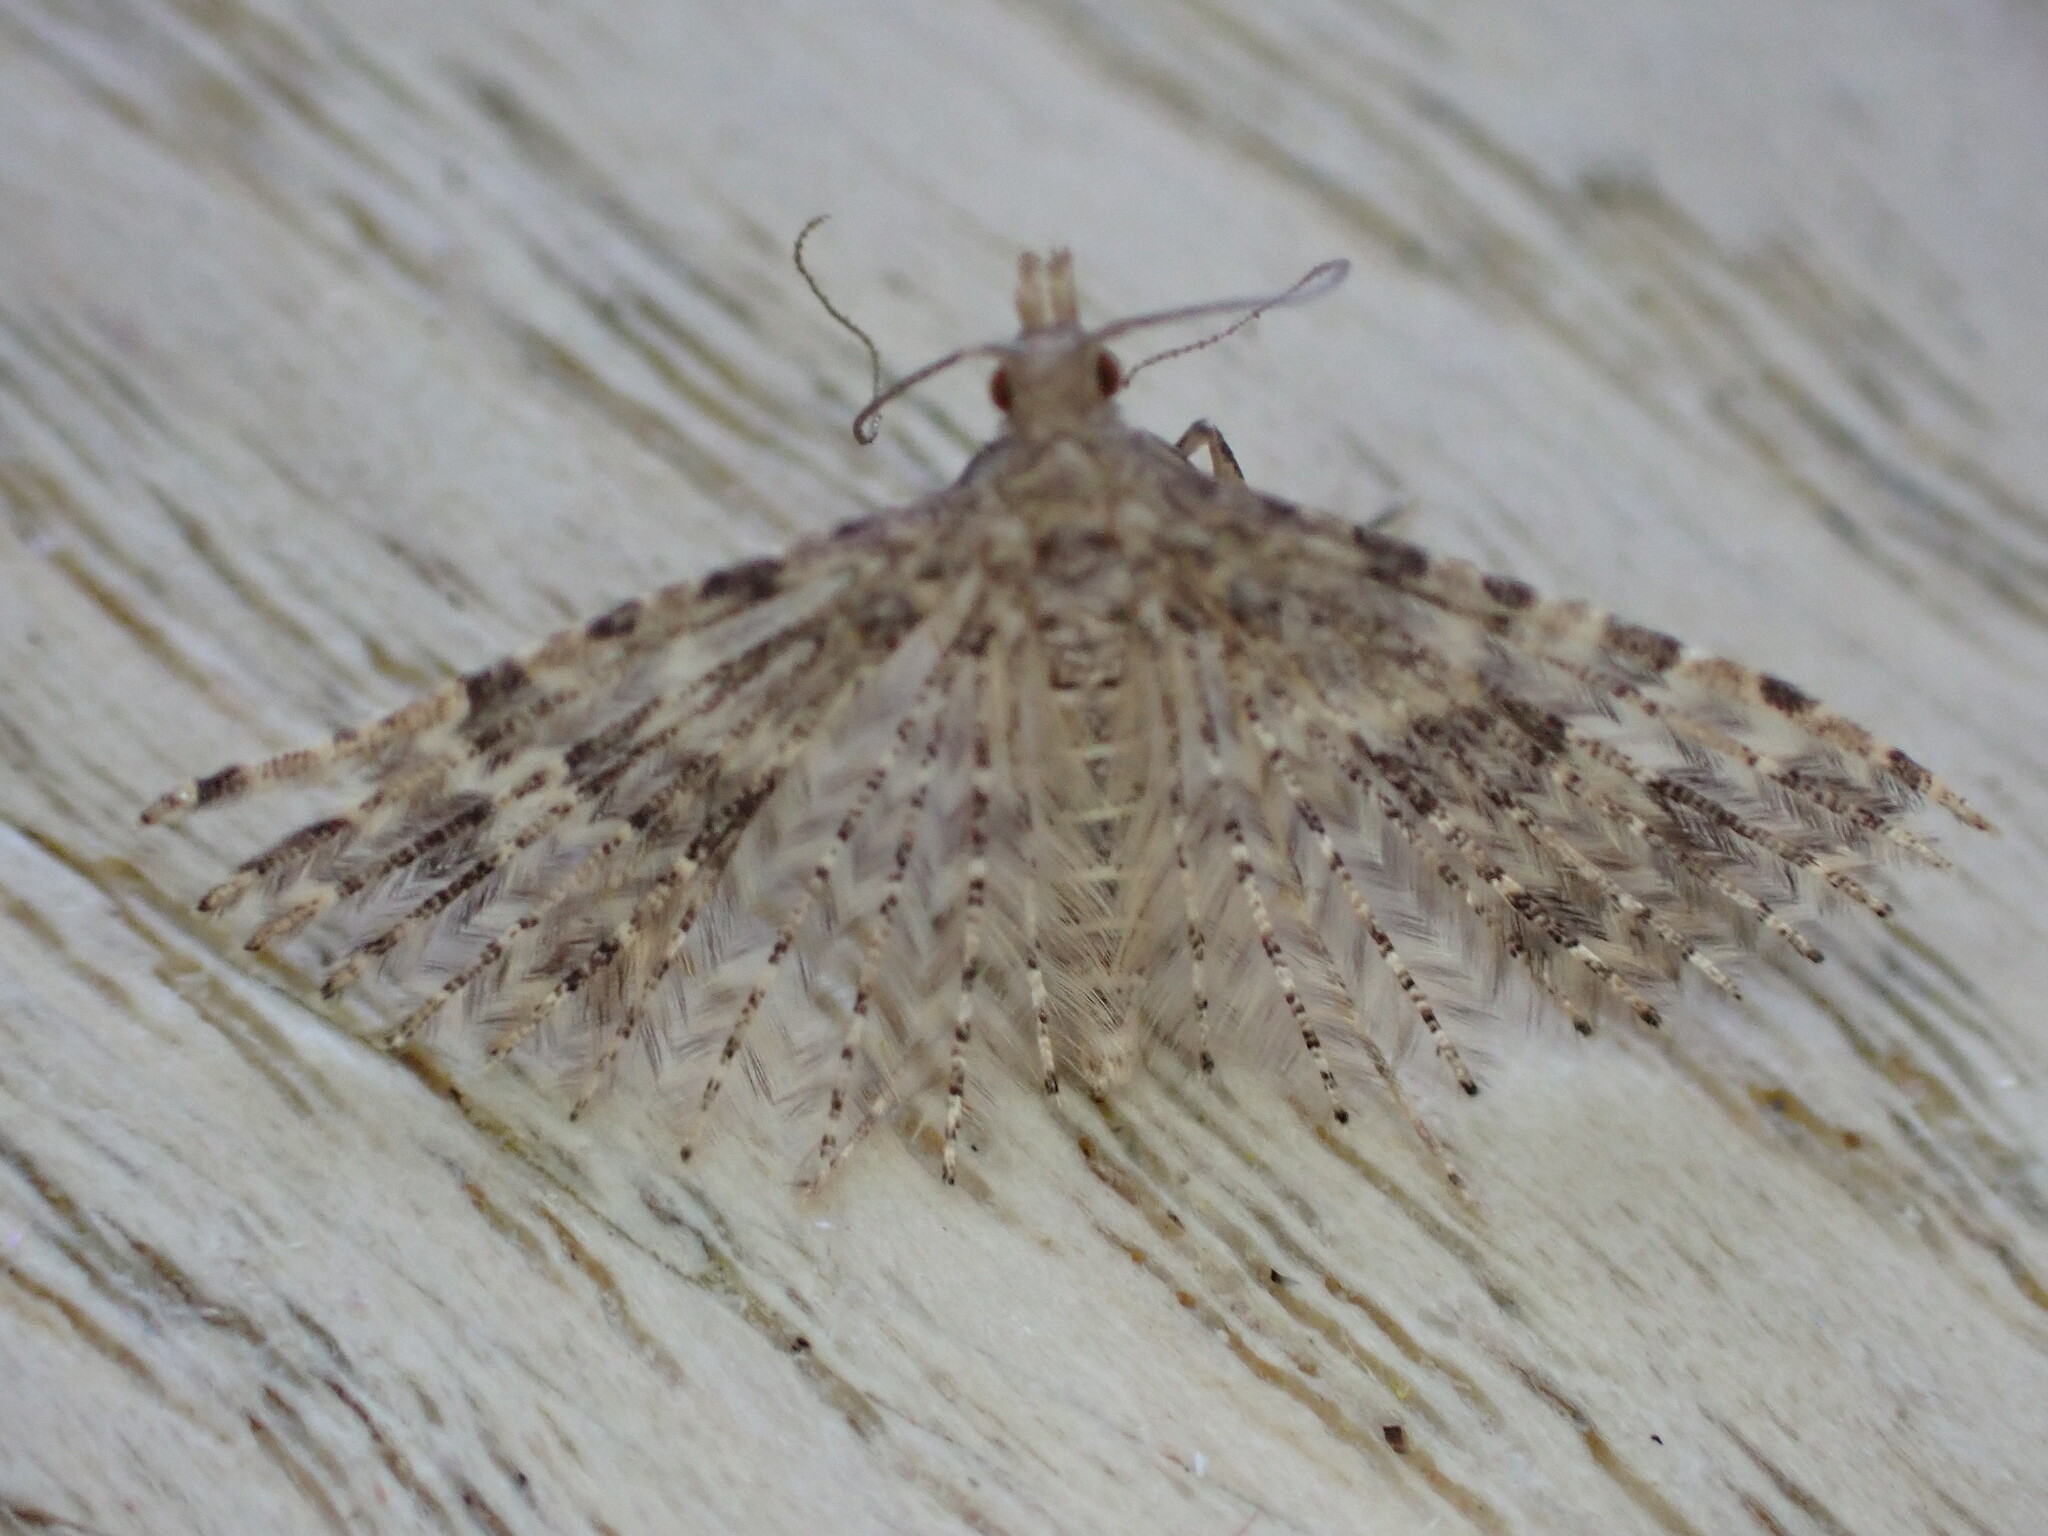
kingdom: Animalia
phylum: Arthropoda
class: Insecta
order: Lepidoptera
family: Alucitidae
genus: Alucita
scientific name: Alucita hexadactyla
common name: Twenty-plume moth
